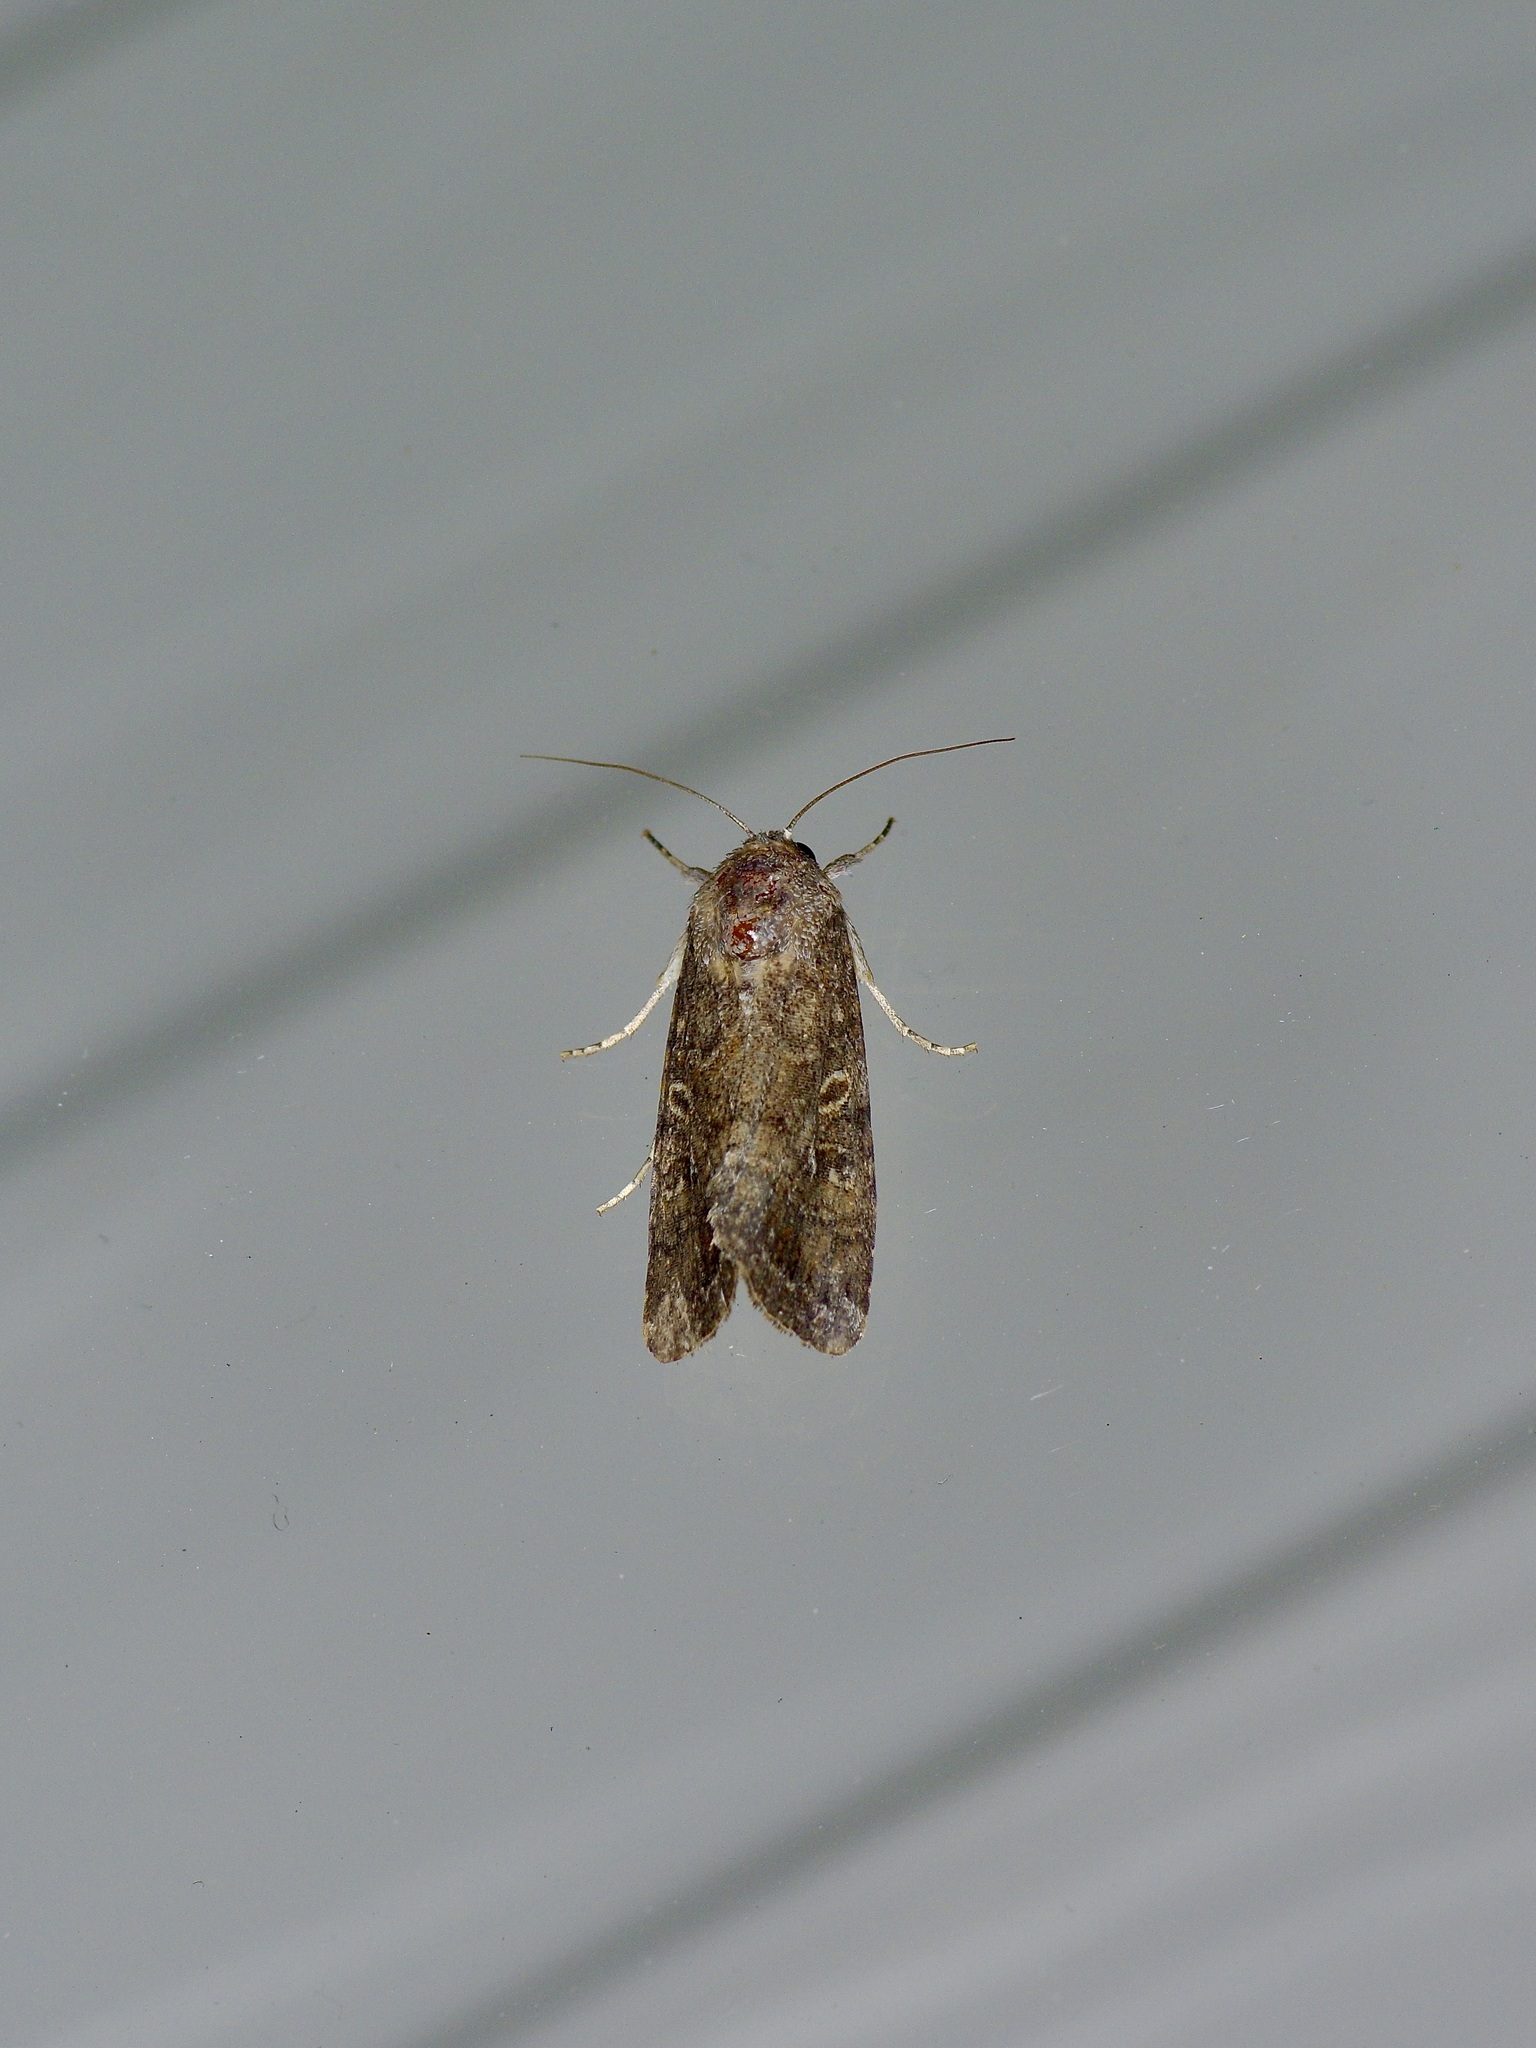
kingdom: Animalia
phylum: Arthropoda
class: Insecta
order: Lepidoptera
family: Noctuidae
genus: Spodoptera
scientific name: Spodoptera frugiperda
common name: Fall armyworm
